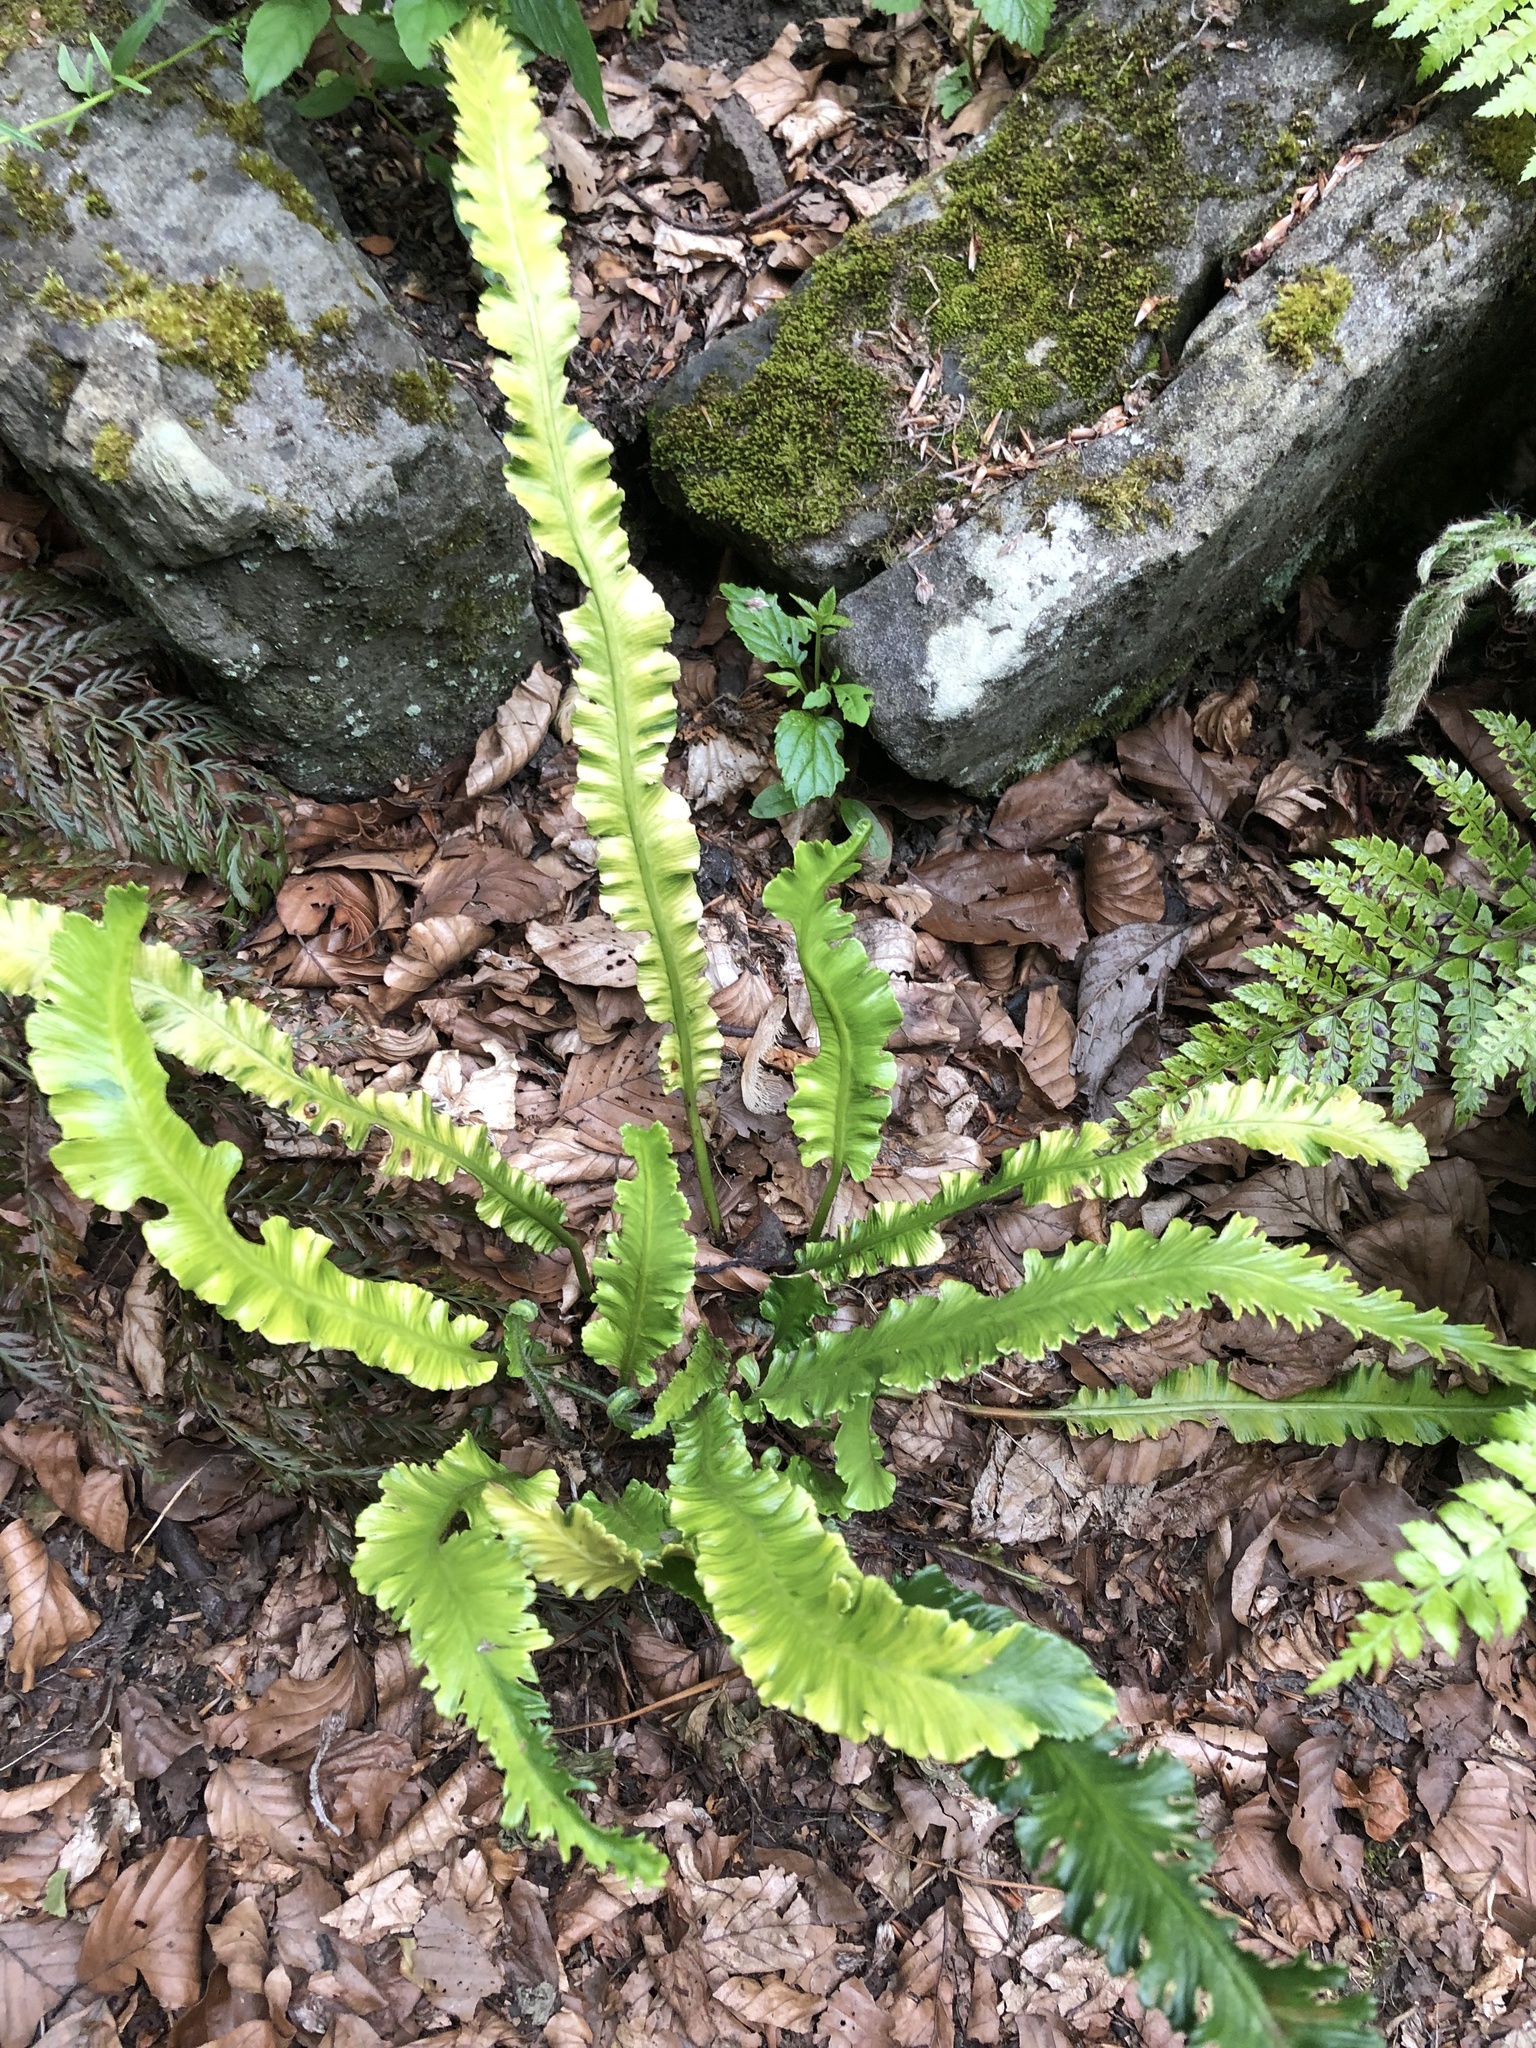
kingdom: Plantae
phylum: Tracheophyta
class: Polypodiopsida
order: Polypodiales
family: Aspleniaceae
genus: Asplenium
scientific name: Asplenium scolopendrium
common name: Hart's-tongue fern
